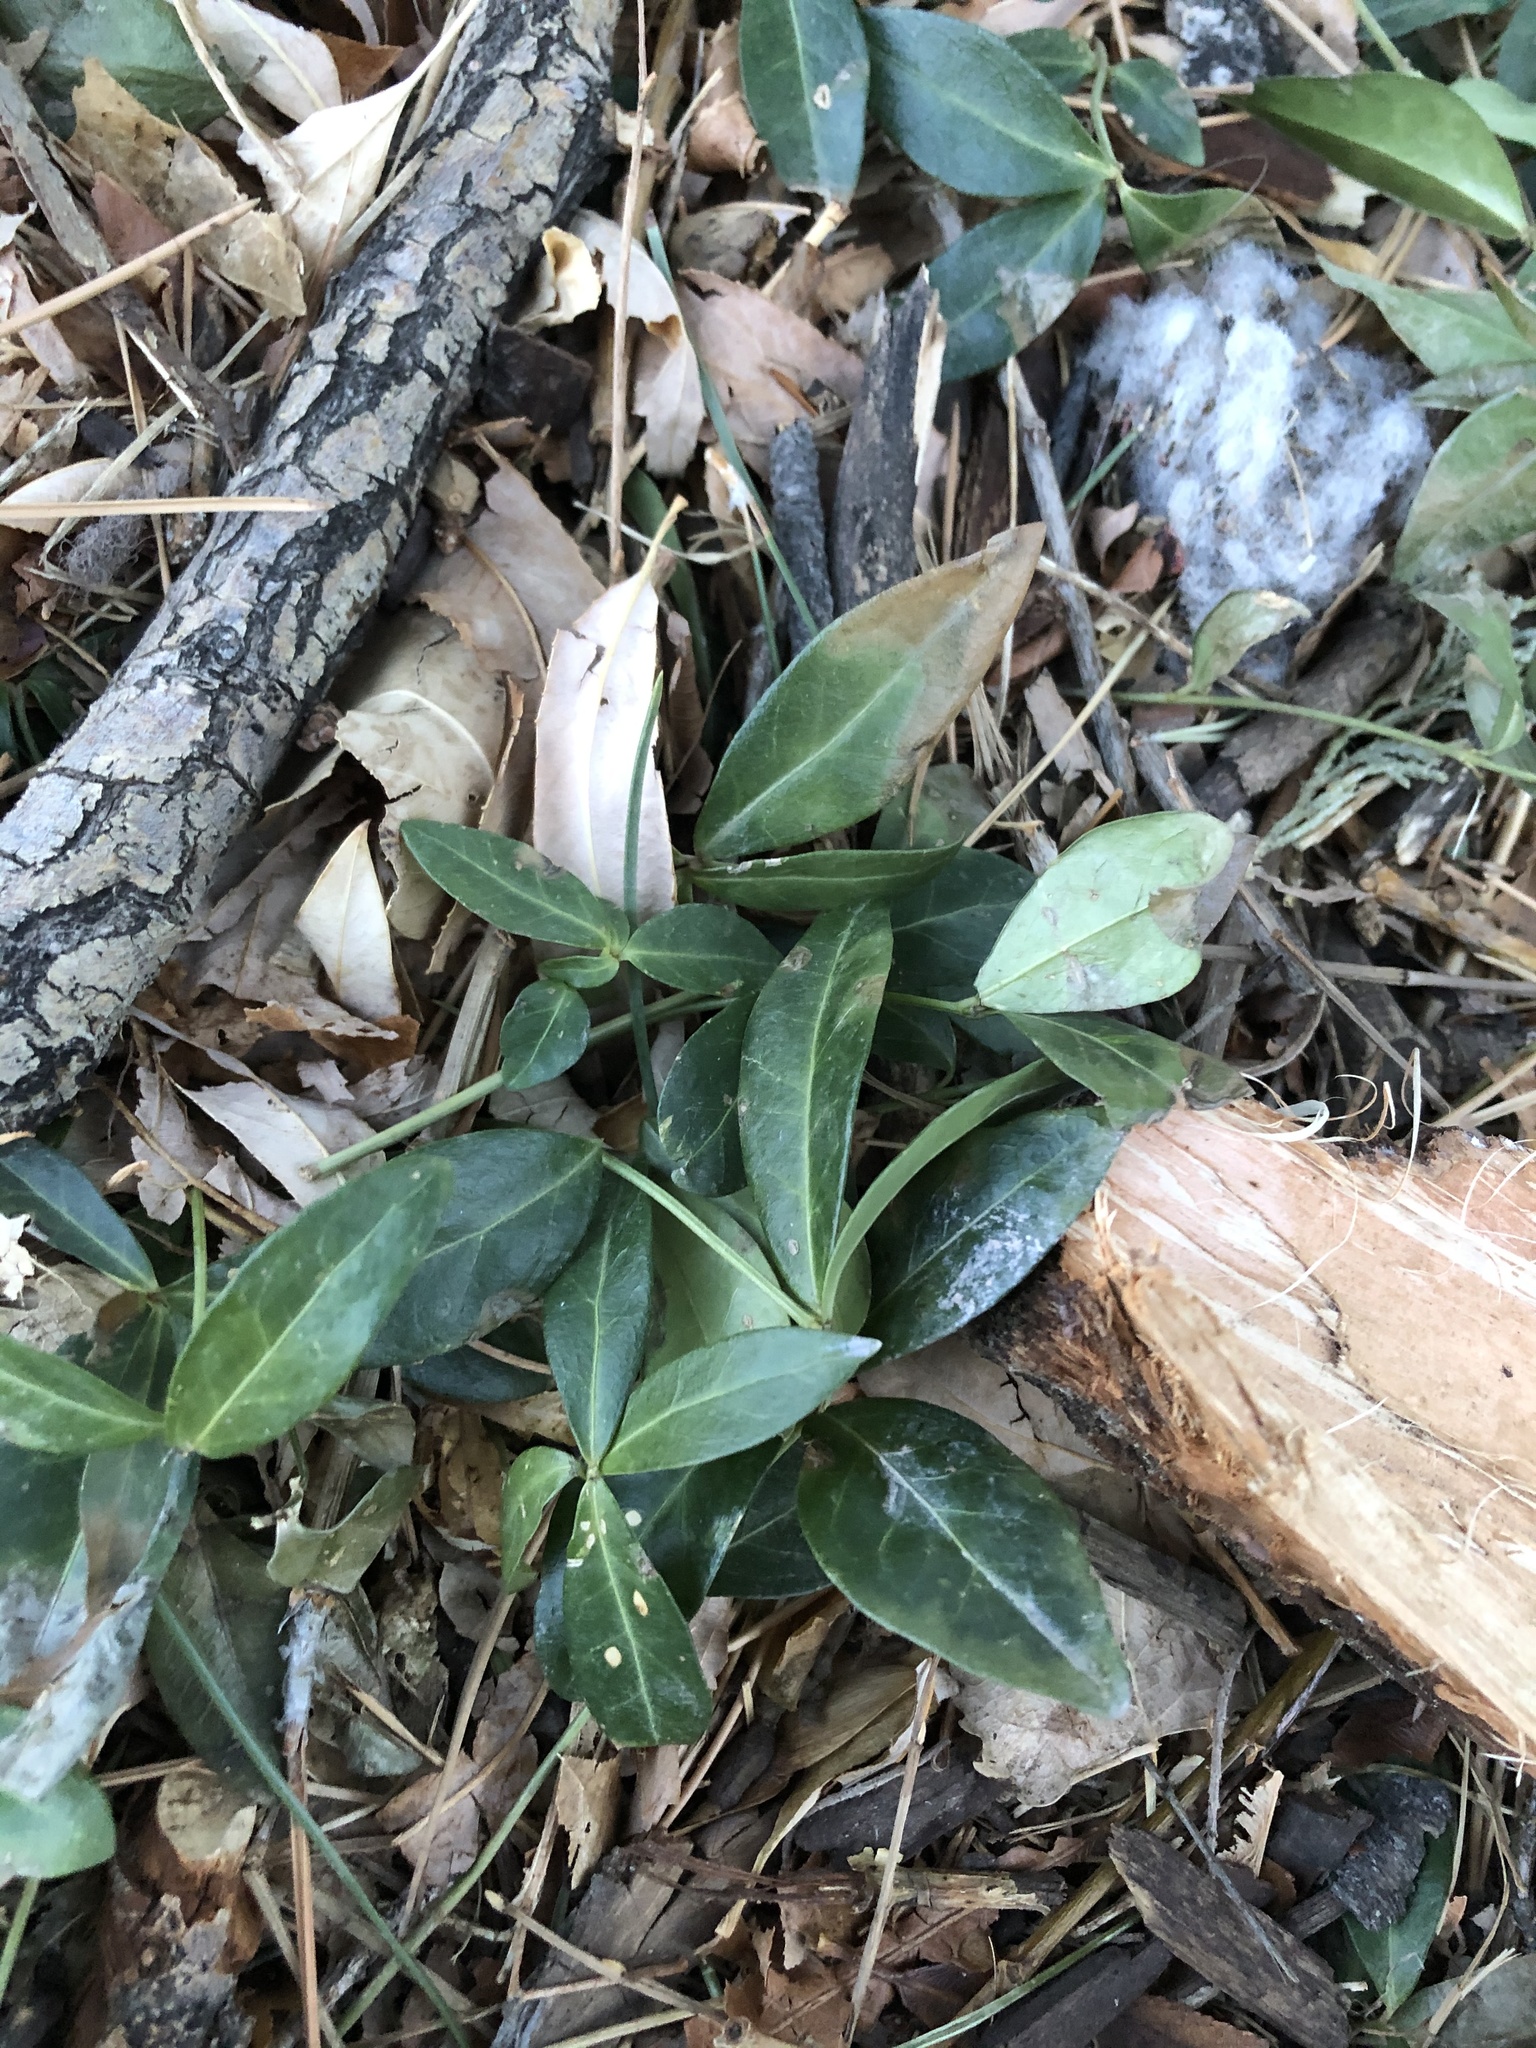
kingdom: Plantae
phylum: Tracheophyta
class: Magnoliopsida
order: Gentianales
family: Apocynaceae
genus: Vinca
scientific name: Vinca minor
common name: Lesser periwinkle
